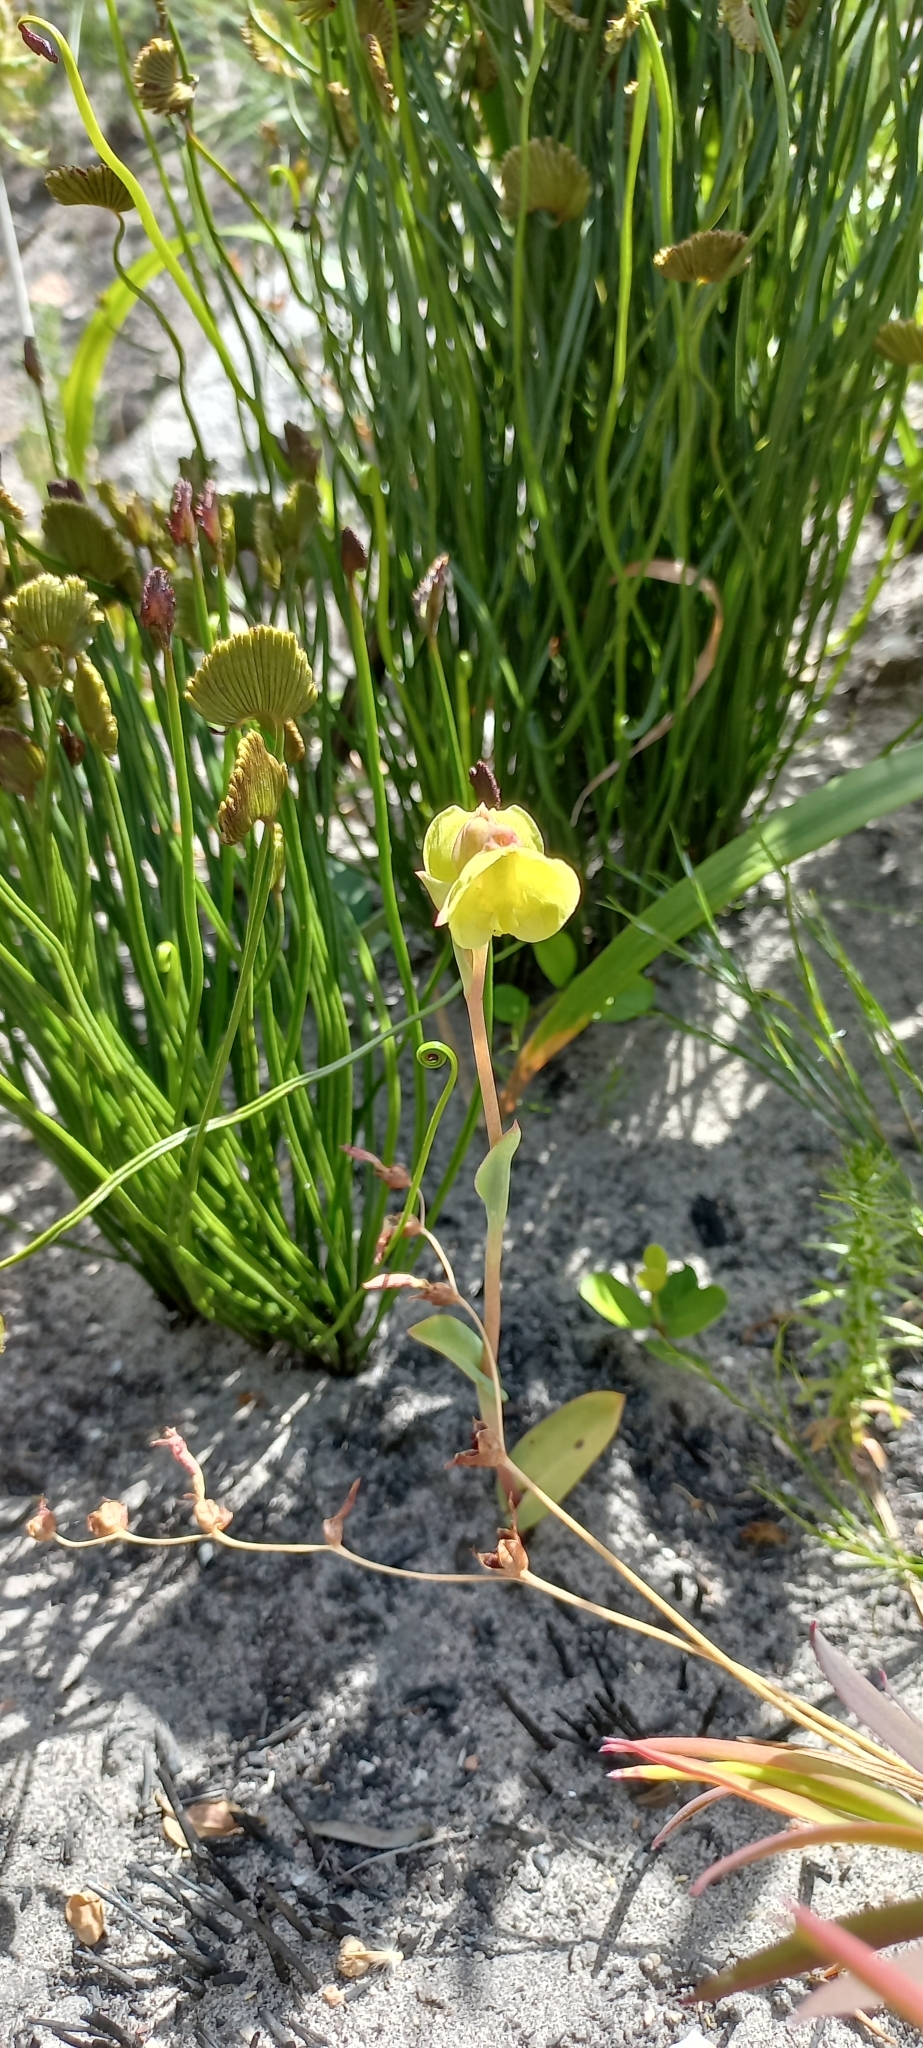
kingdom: Plantae
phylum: Tracheophyta
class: Liliopsida
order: Asparagales
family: Orchidaceae
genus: Pterygodium
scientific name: Pterygodium catholicum
